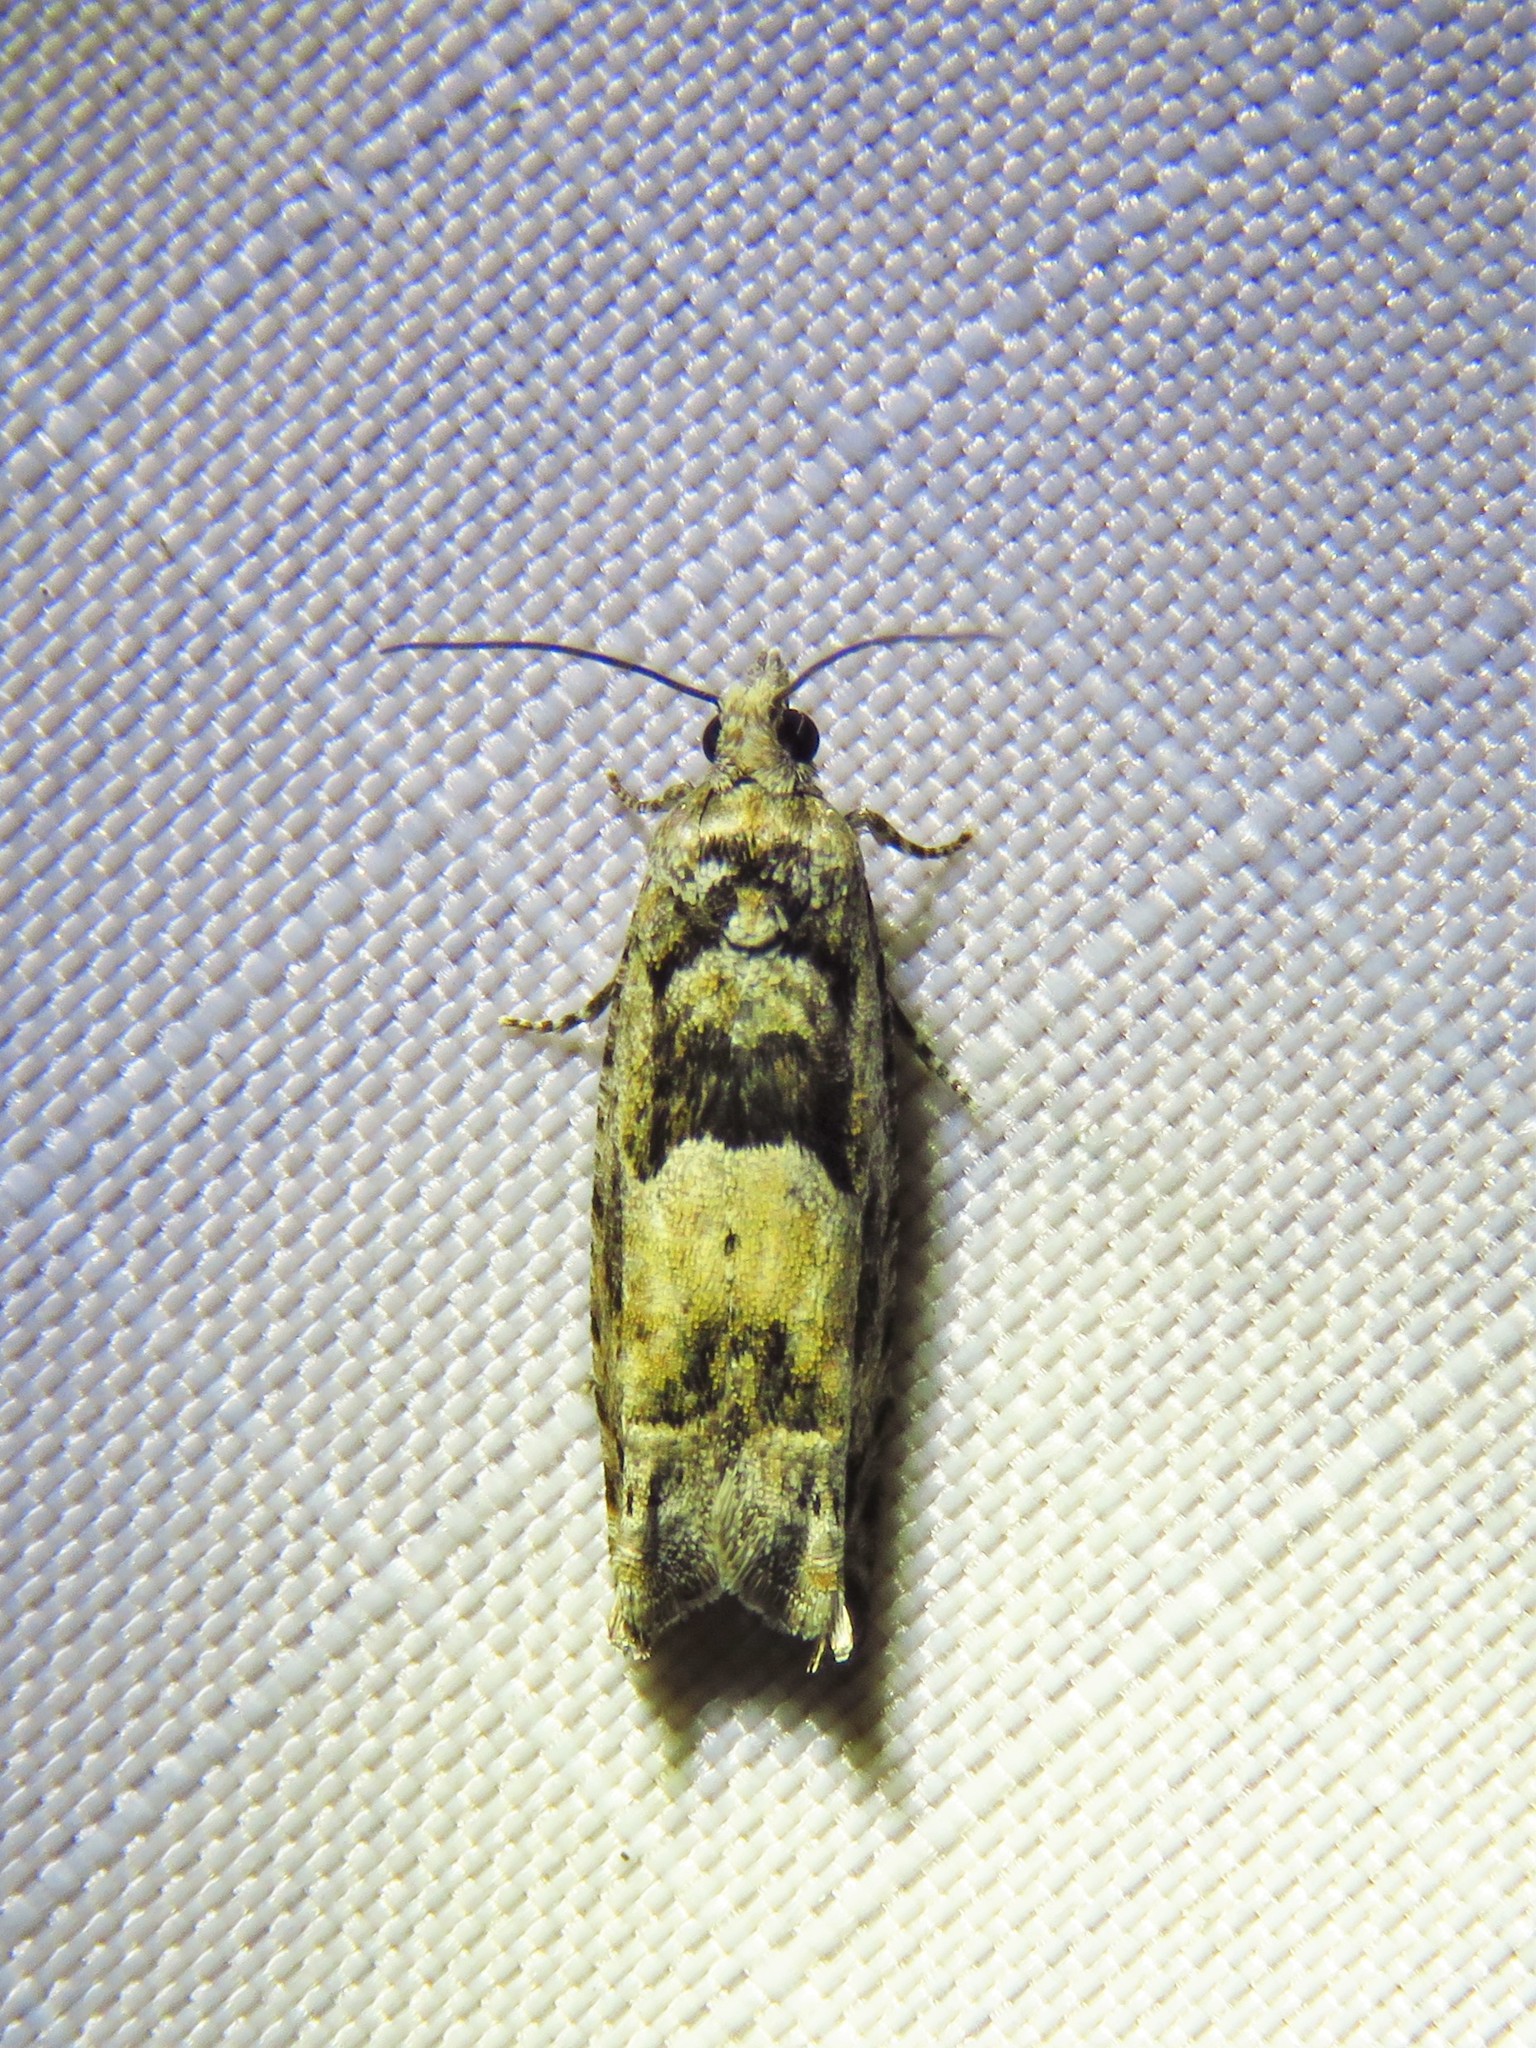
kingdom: Animalia
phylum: Arthropoda
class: Insecta
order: Lepidoptera
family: Tortricidae
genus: Pseudexentera
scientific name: Pseudexentera hodsoni
